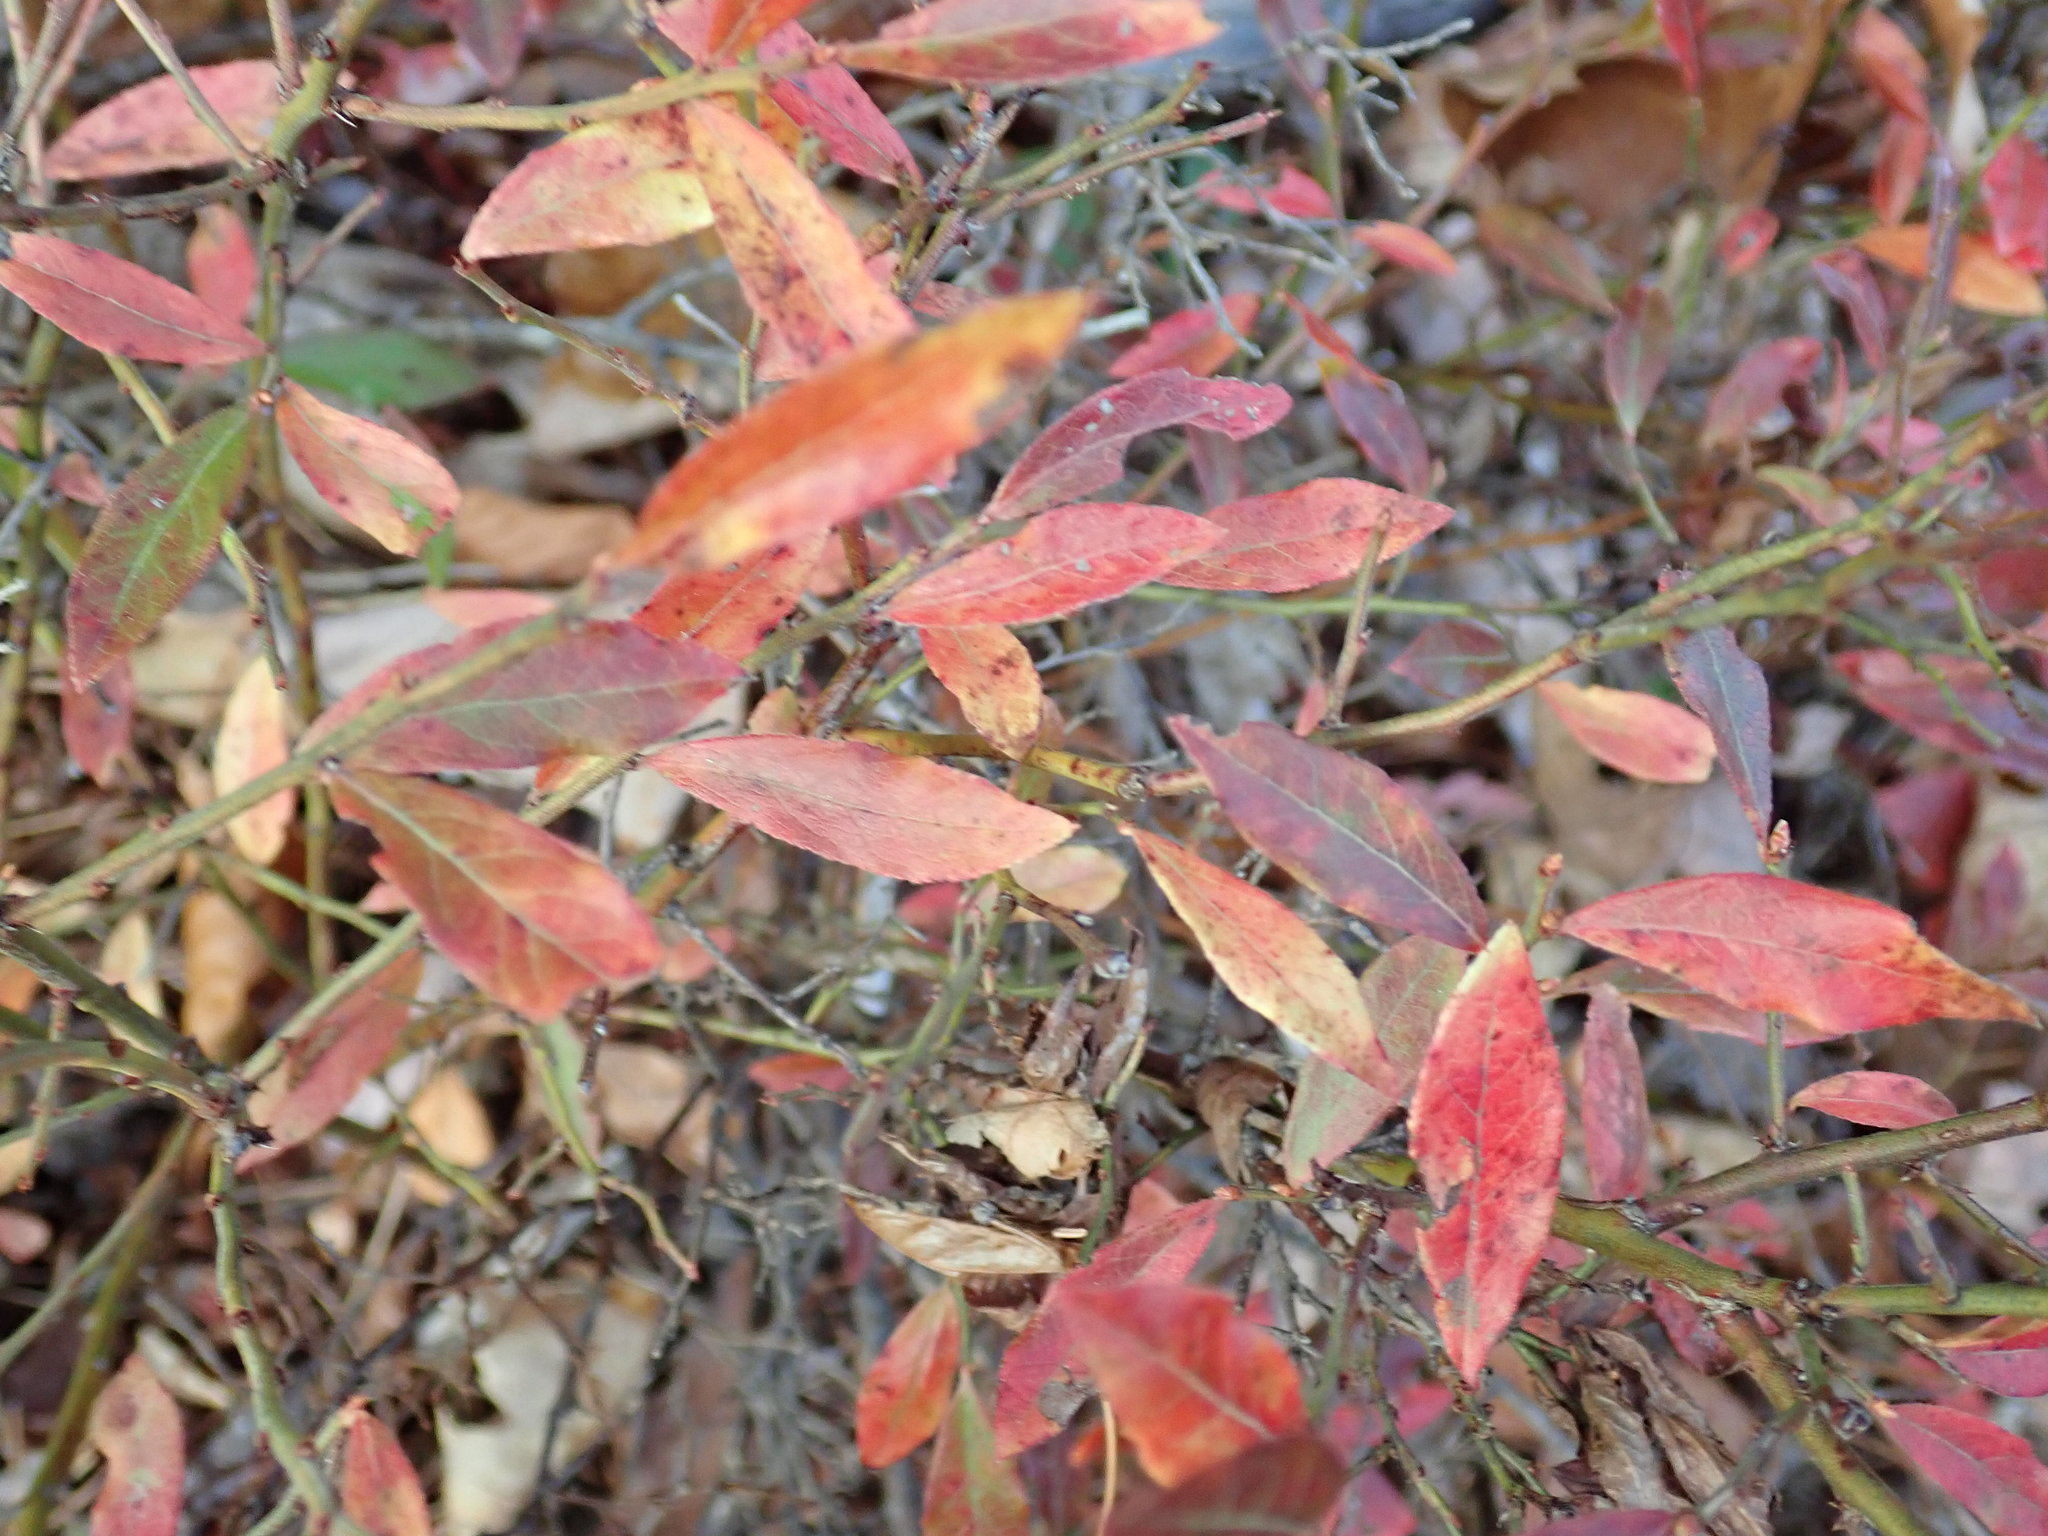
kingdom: Plantae
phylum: Tracheophyta
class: Magnoliopsida
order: Ericales
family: Ericaceae
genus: Vaccinium
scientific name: Vaccinium angustifolium
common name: Early lowbush blueberry
